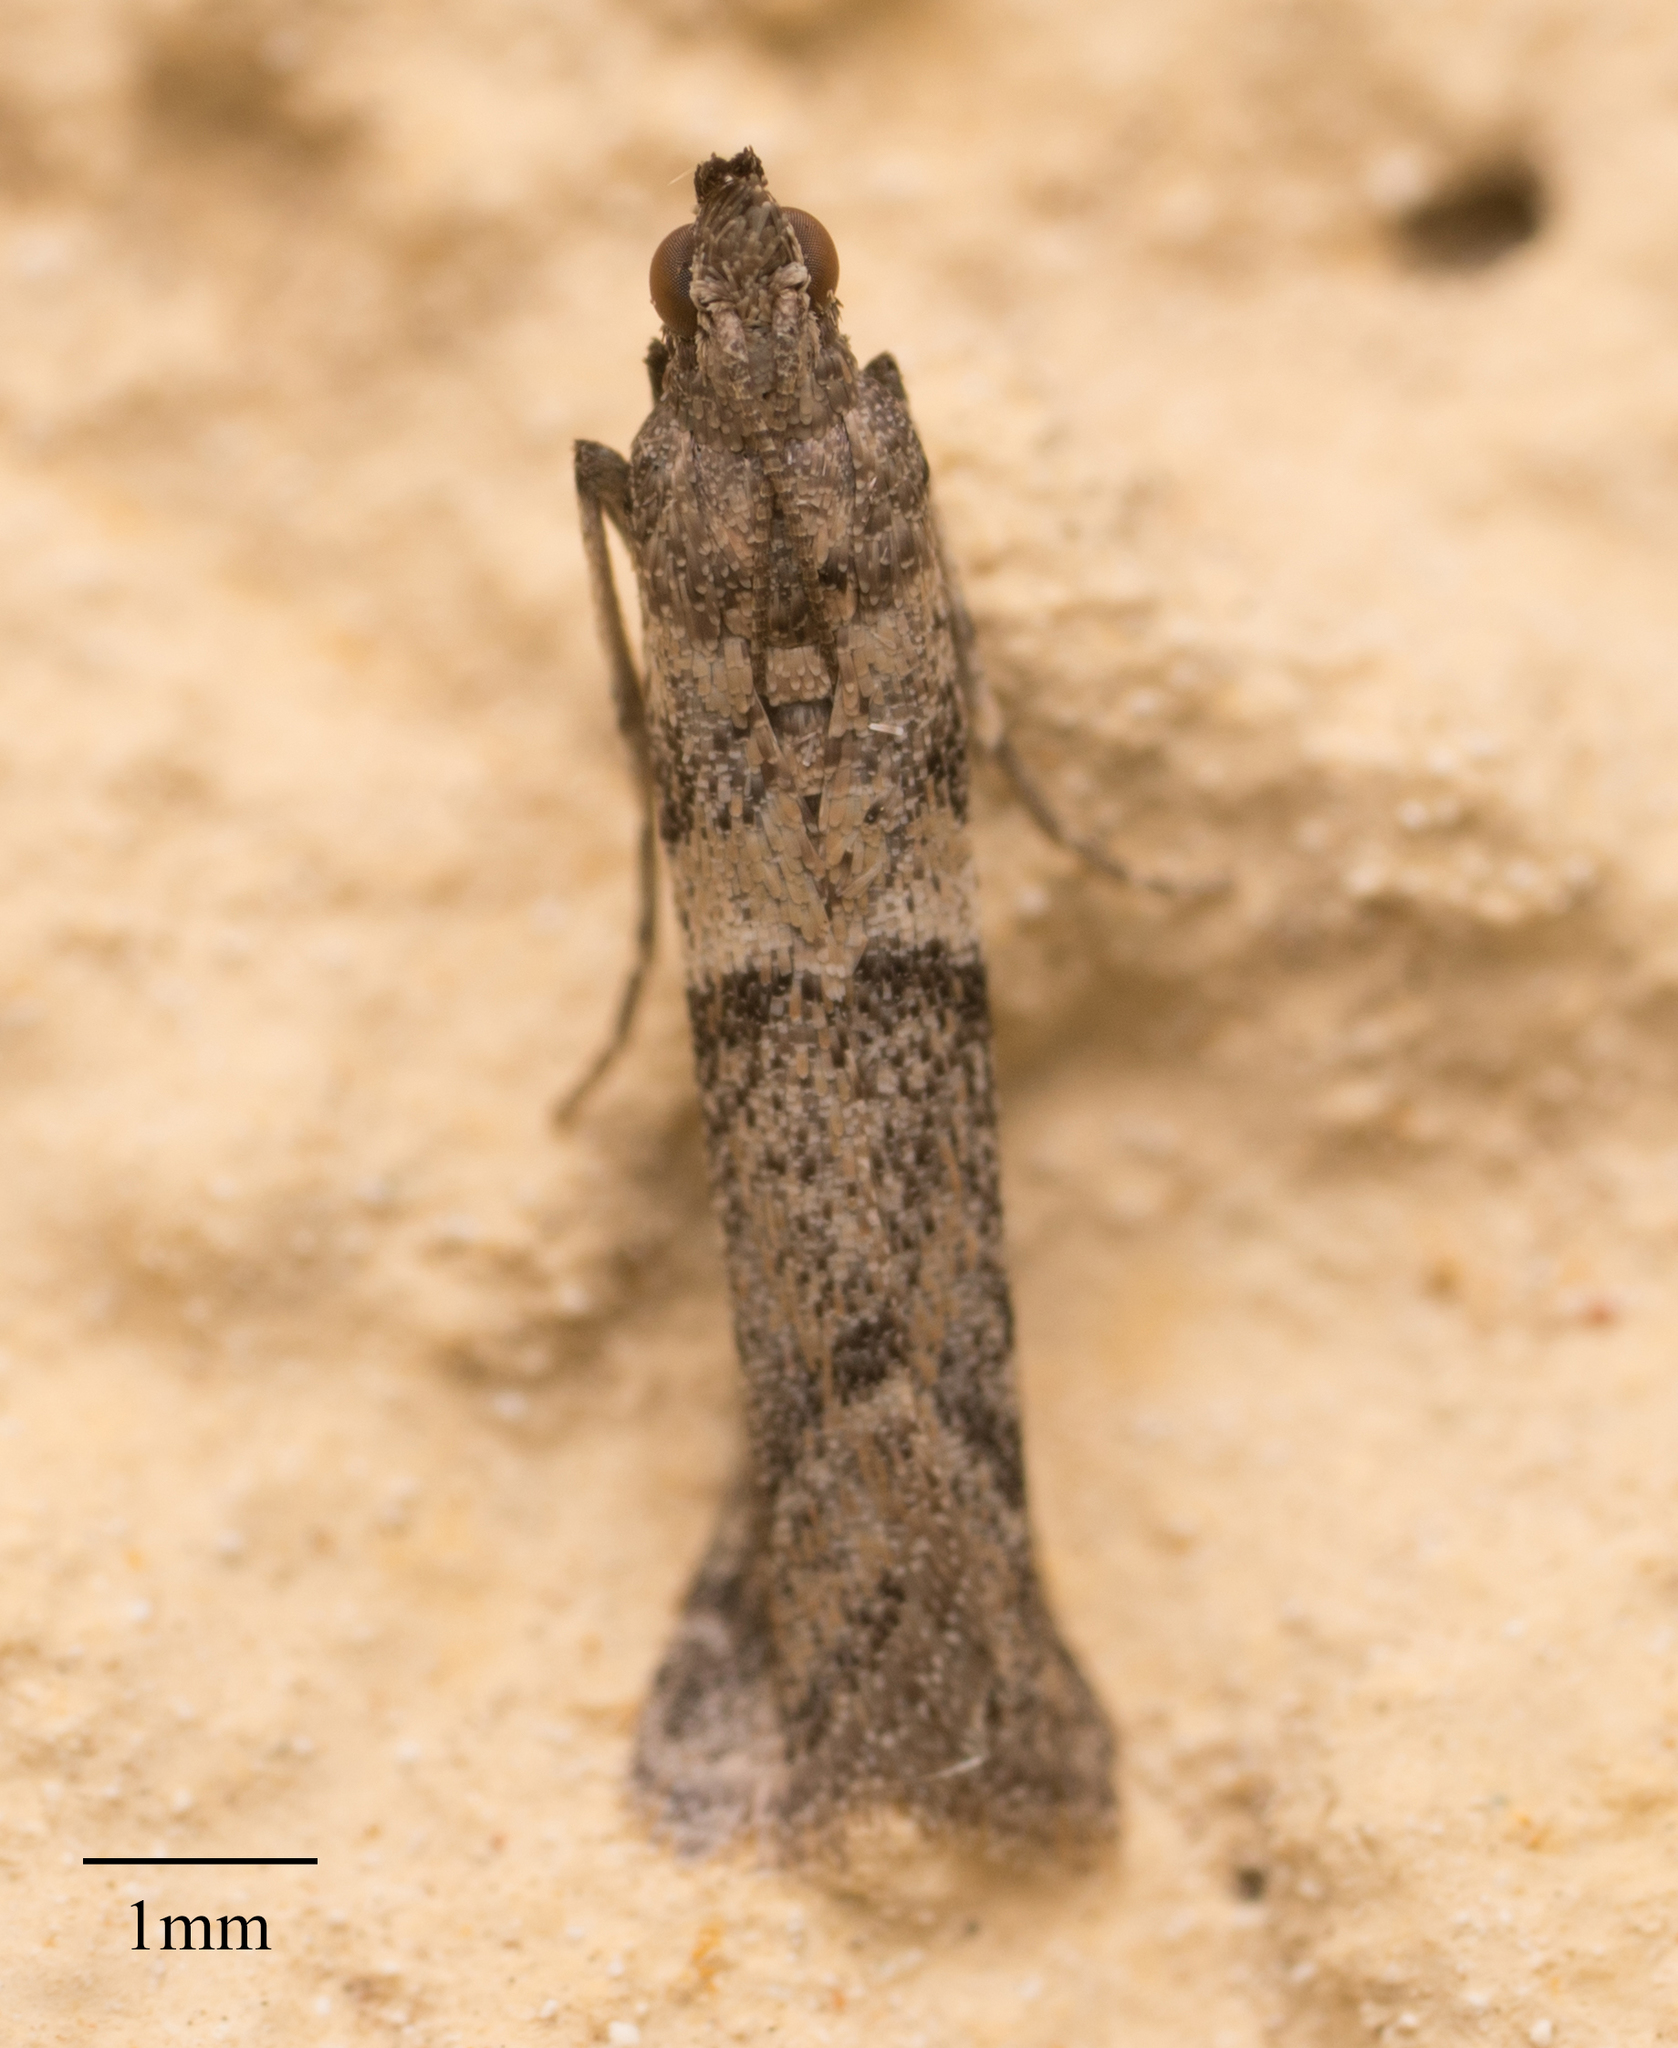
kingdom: Animalia
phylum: Arthropoda
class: Insecta
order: Lepidoptera
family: Pyralidae
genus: Ephestiodes
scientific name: Ephestiodes gilvescentella
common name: Moth
